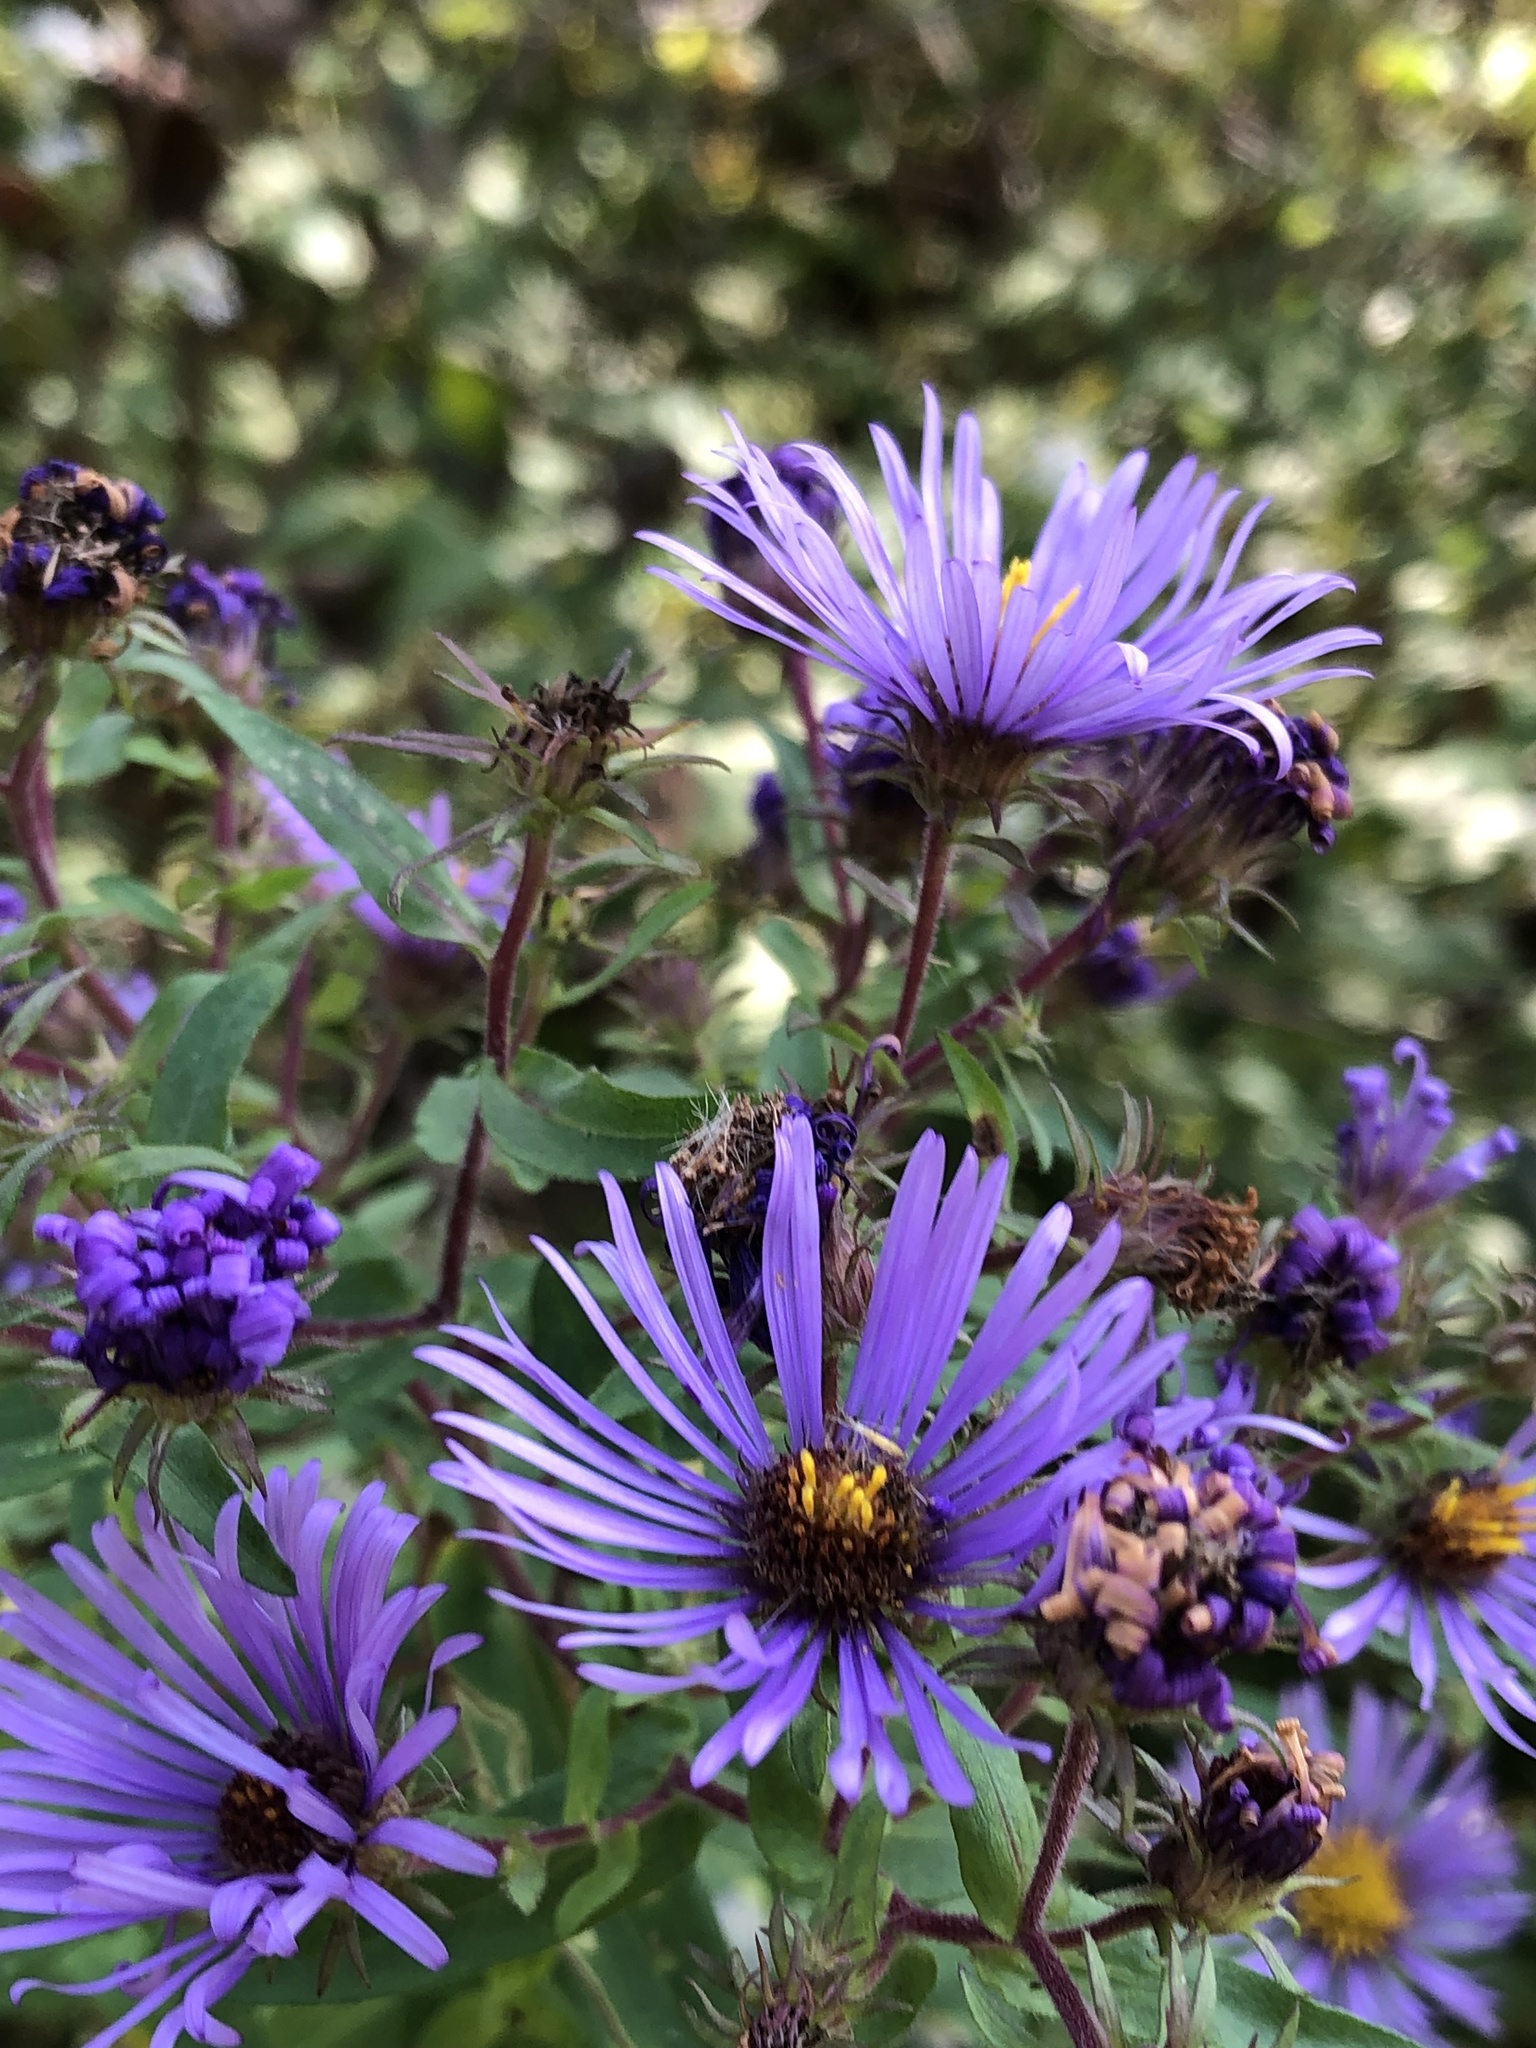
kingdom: Plantae
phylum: Tracheophyta
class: Magnoliopsida
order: Asterales
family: Asteraceae
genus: Symphyotrichum
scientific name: Symphyotrichum novae-angliae
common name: Michaelmas daisy
